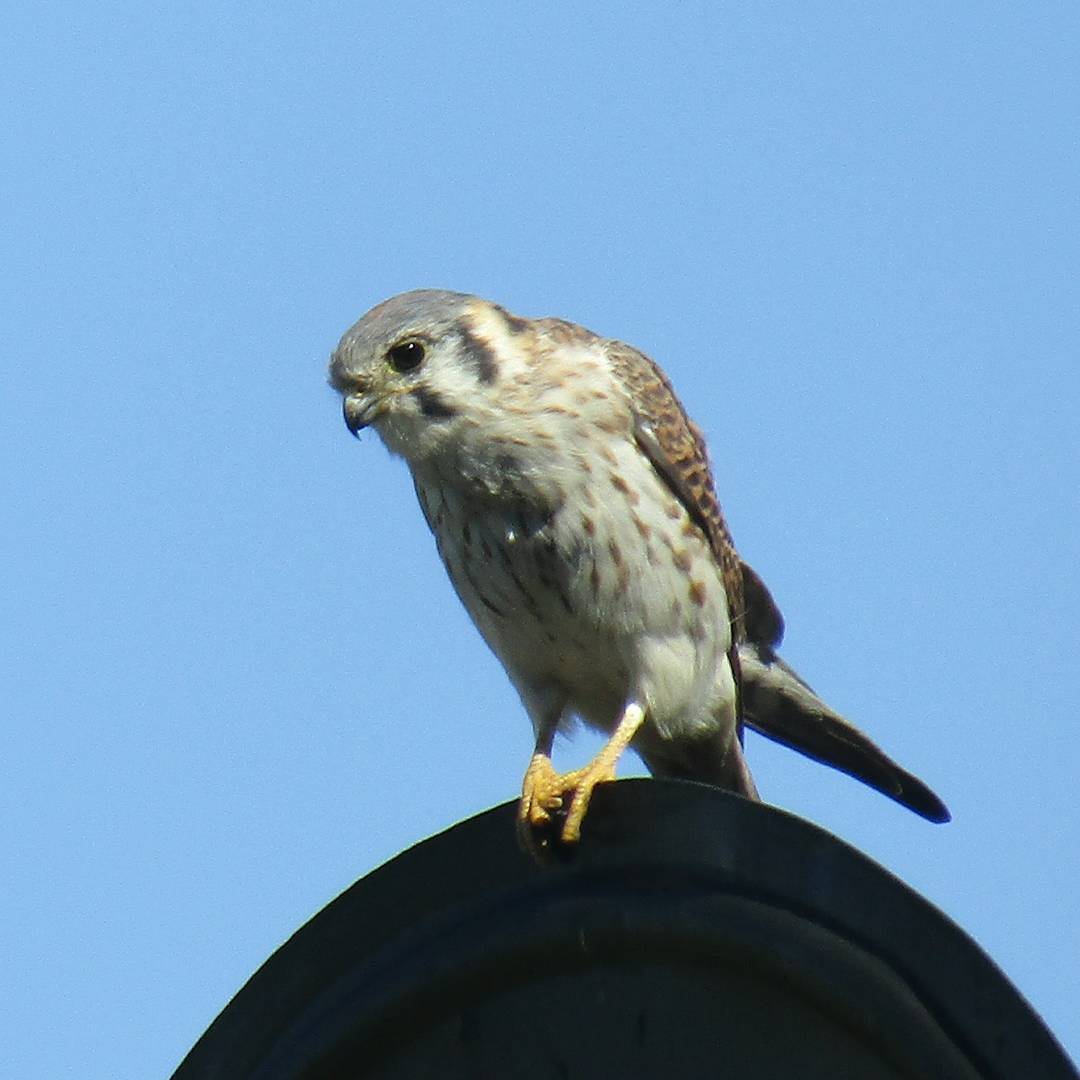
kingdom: Animalia
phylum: Chordata
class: Aves
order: Falconiformes
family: Falconidae
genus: Falco
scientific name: Falco sparverius
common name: American kestrel
